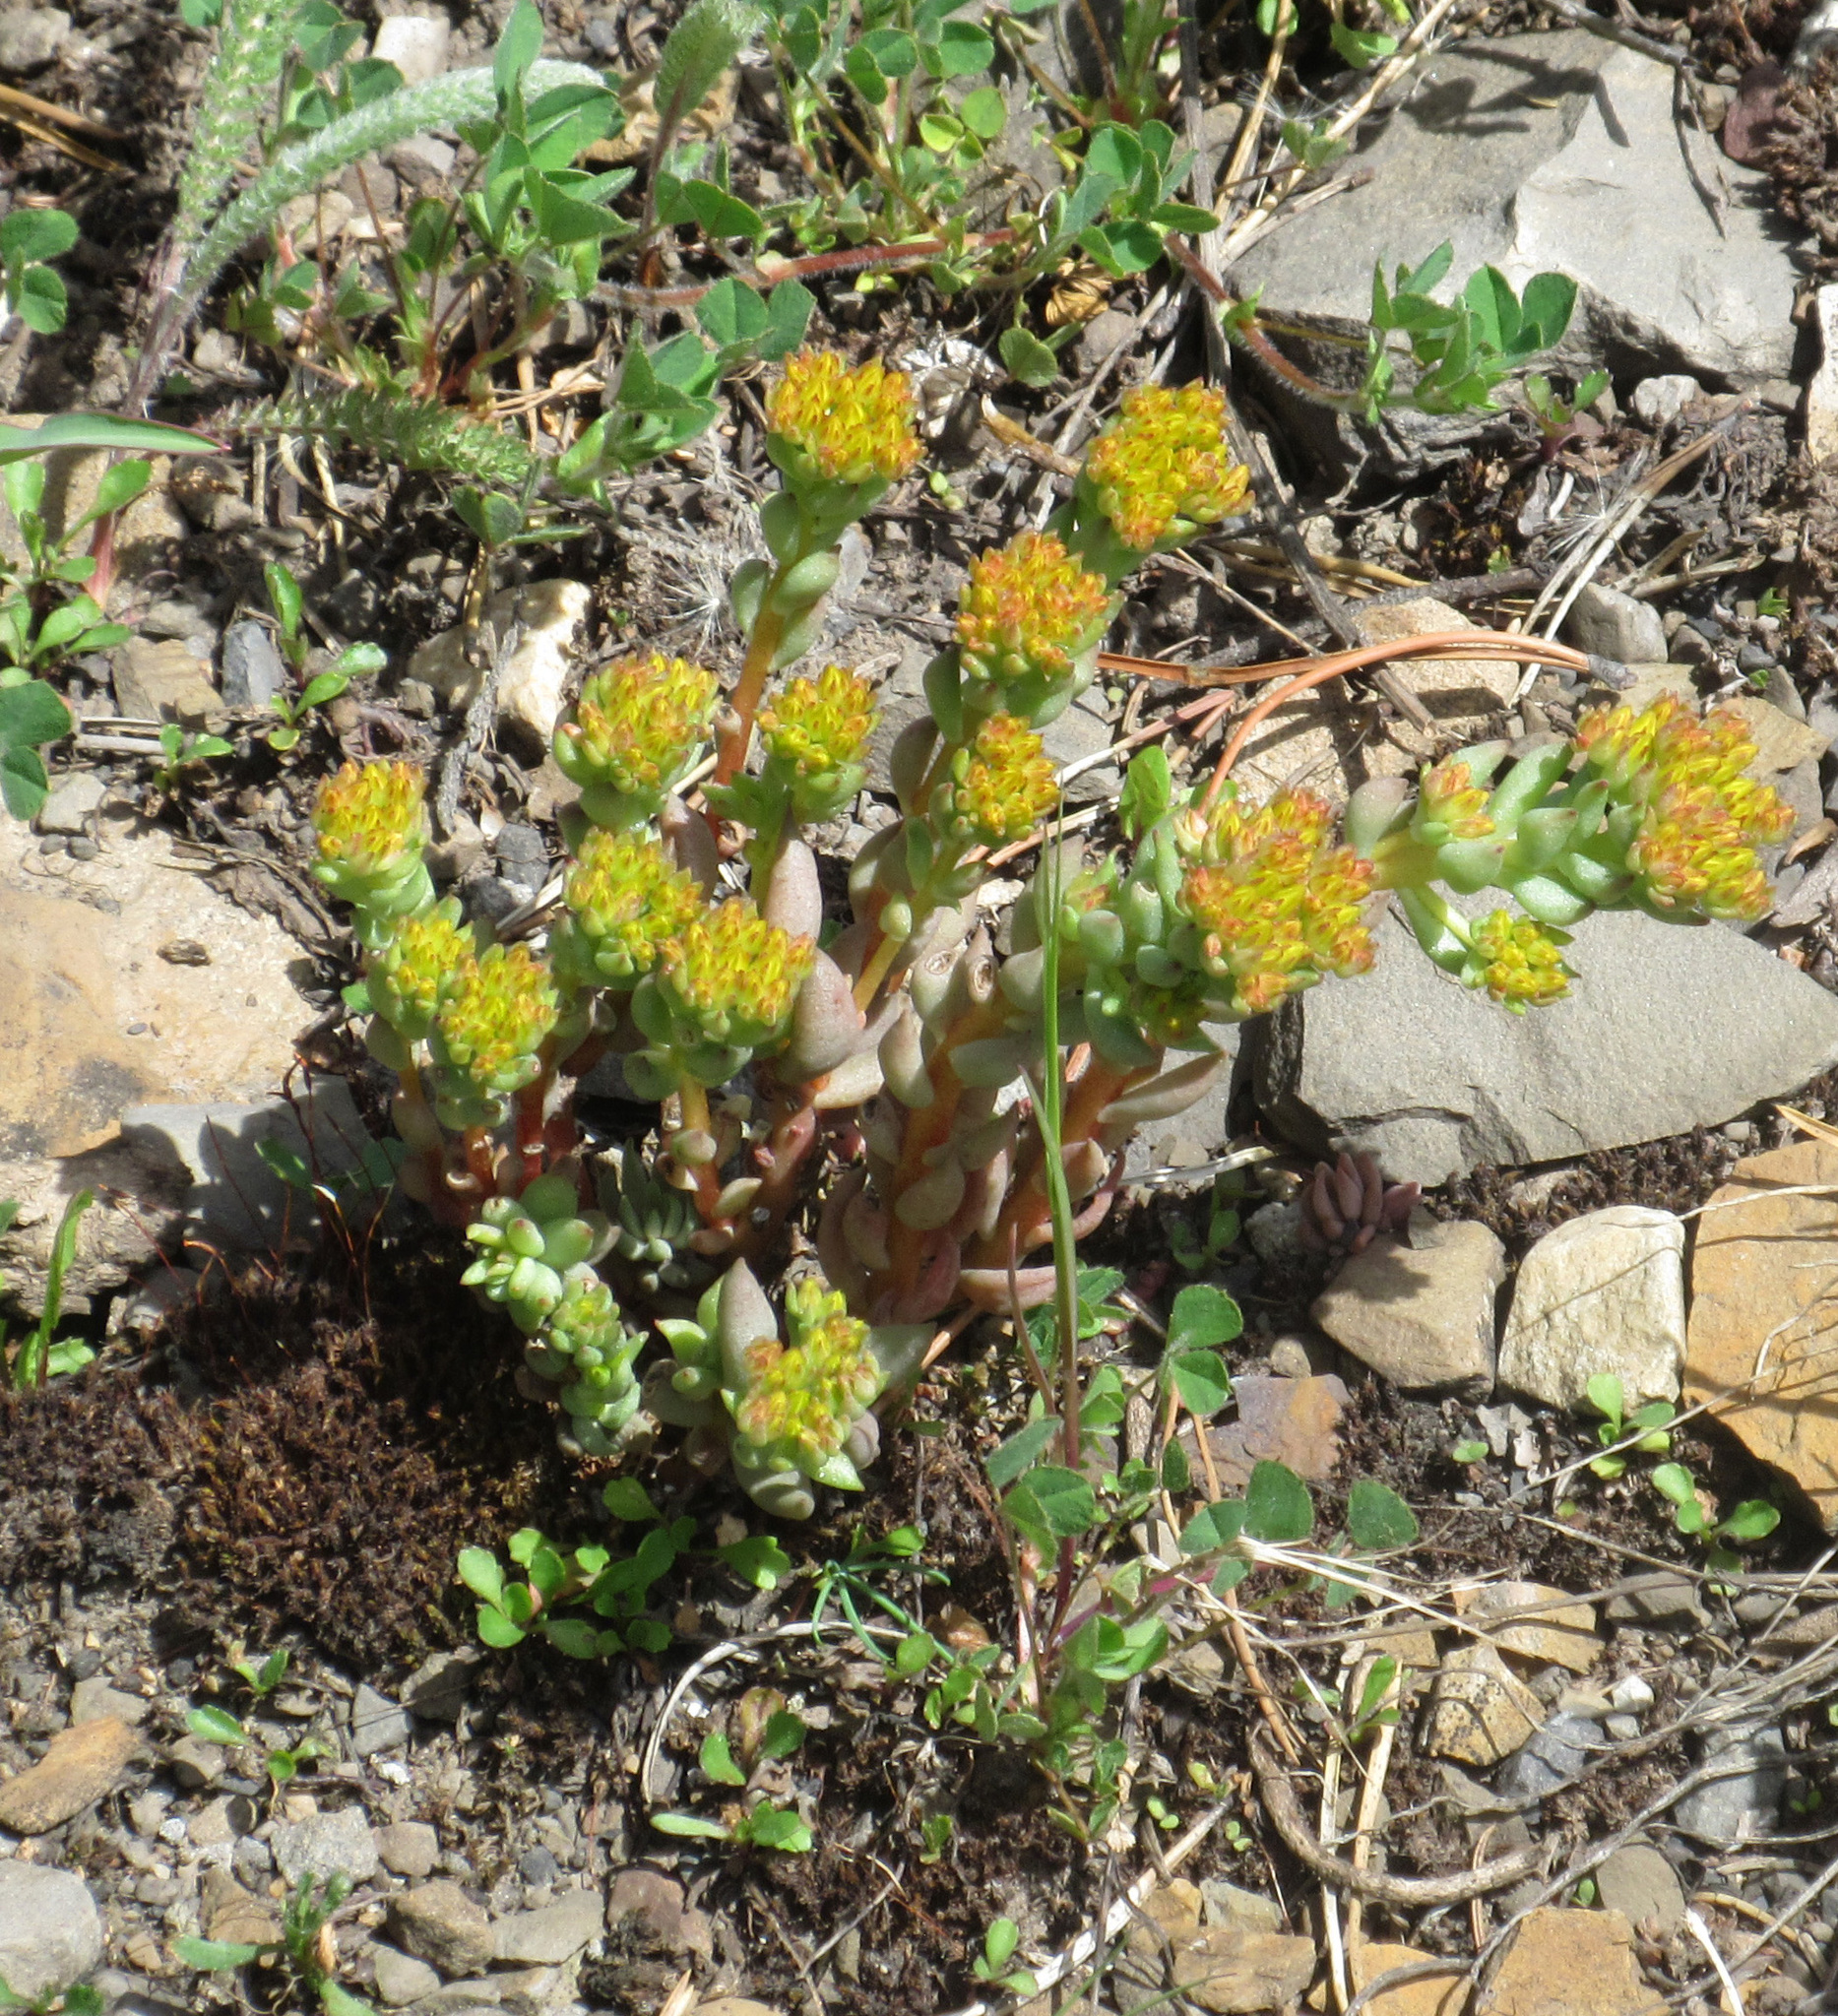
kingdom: Plantae
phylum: Tracheophyta
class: Magnoliopsida
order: Saxifragales
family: Crassulaceae
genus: Sedum
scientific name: Sedum lanceolatum
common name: Common stonecrop
